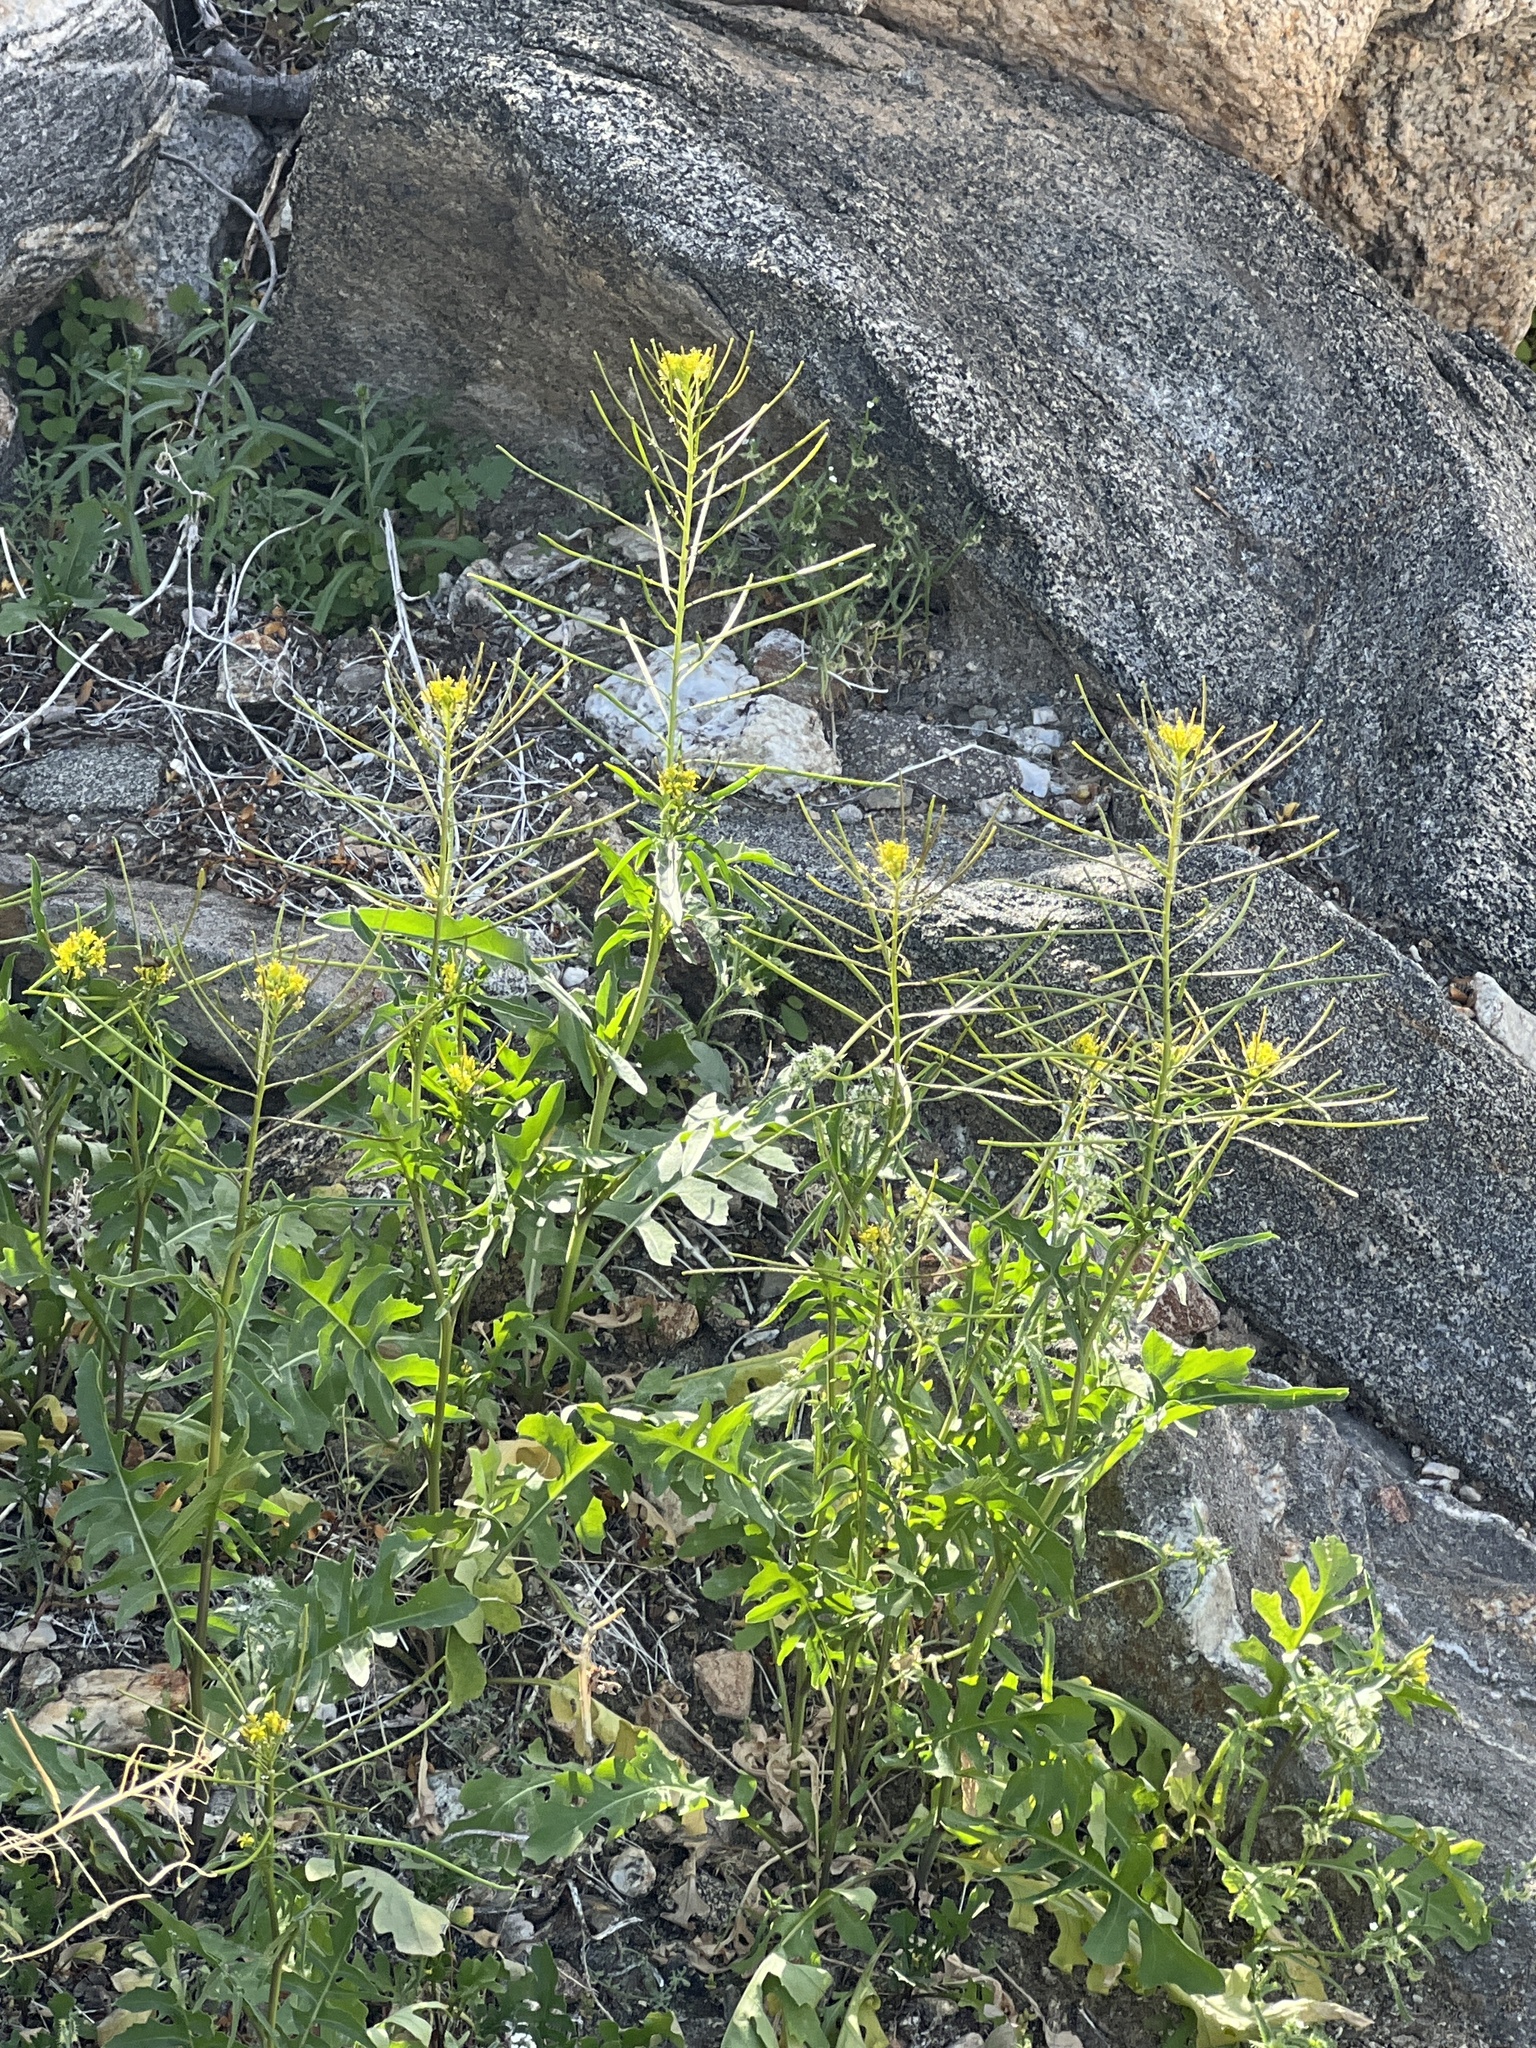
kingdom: Plantae
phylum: Tracheophyta
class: Magnoliopsida
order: Brassicales
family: Brassicaceae
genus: Sisymbrium
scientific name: Sisymbrium irio
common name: London rocket
